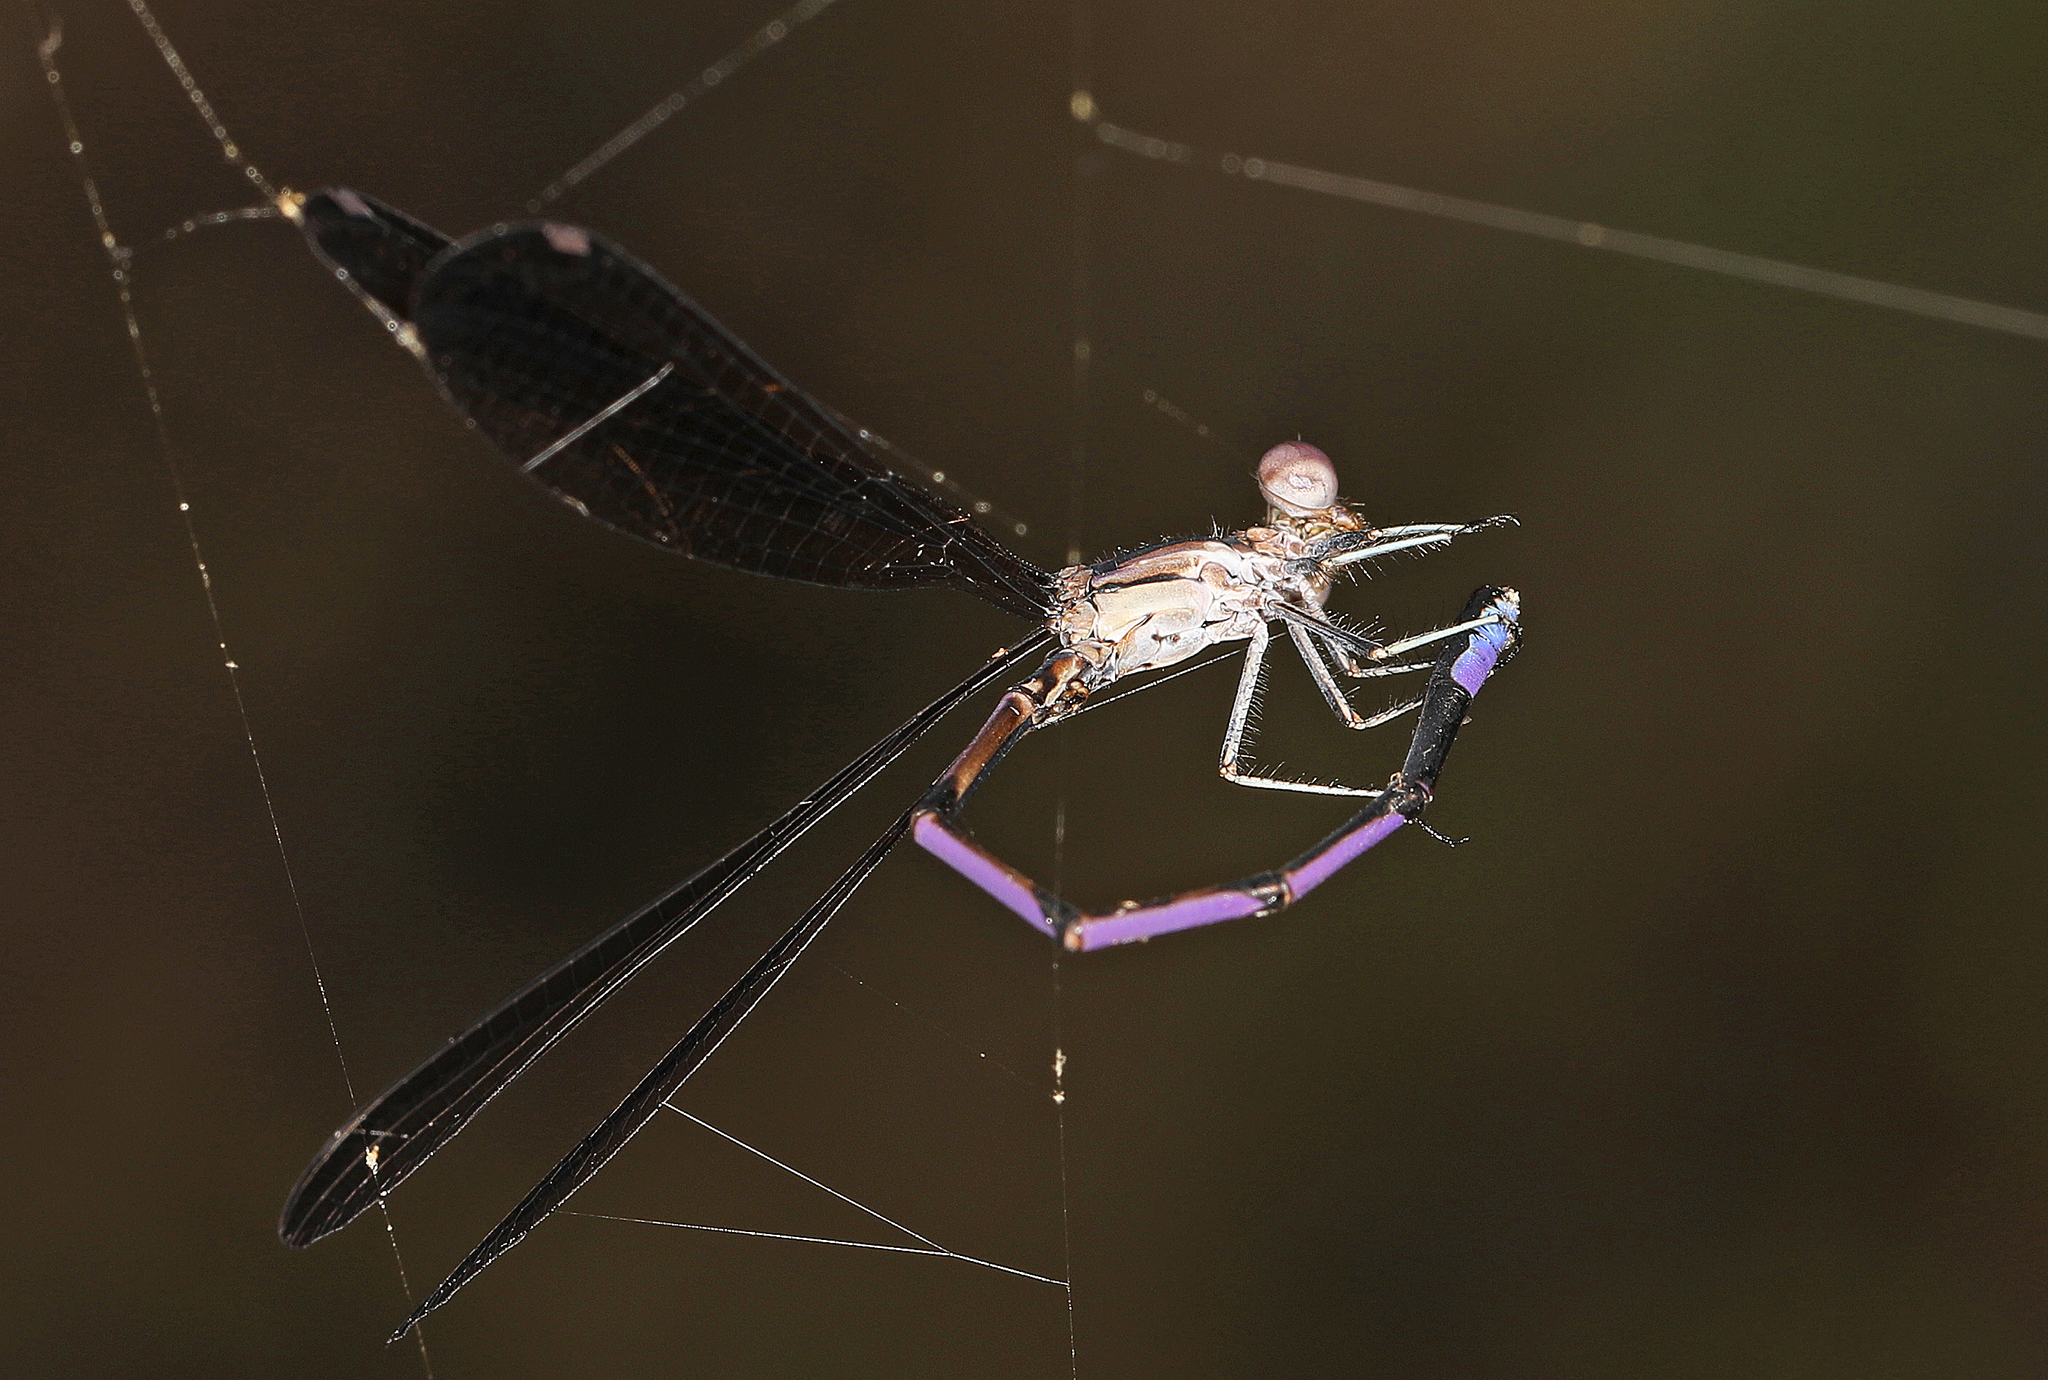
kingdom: Animalia
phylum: Arthropoda
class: Insecta
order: Odonata
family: Coenagrionidae
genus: Argia
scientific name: Argia fumipennis
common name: Variable dancer
